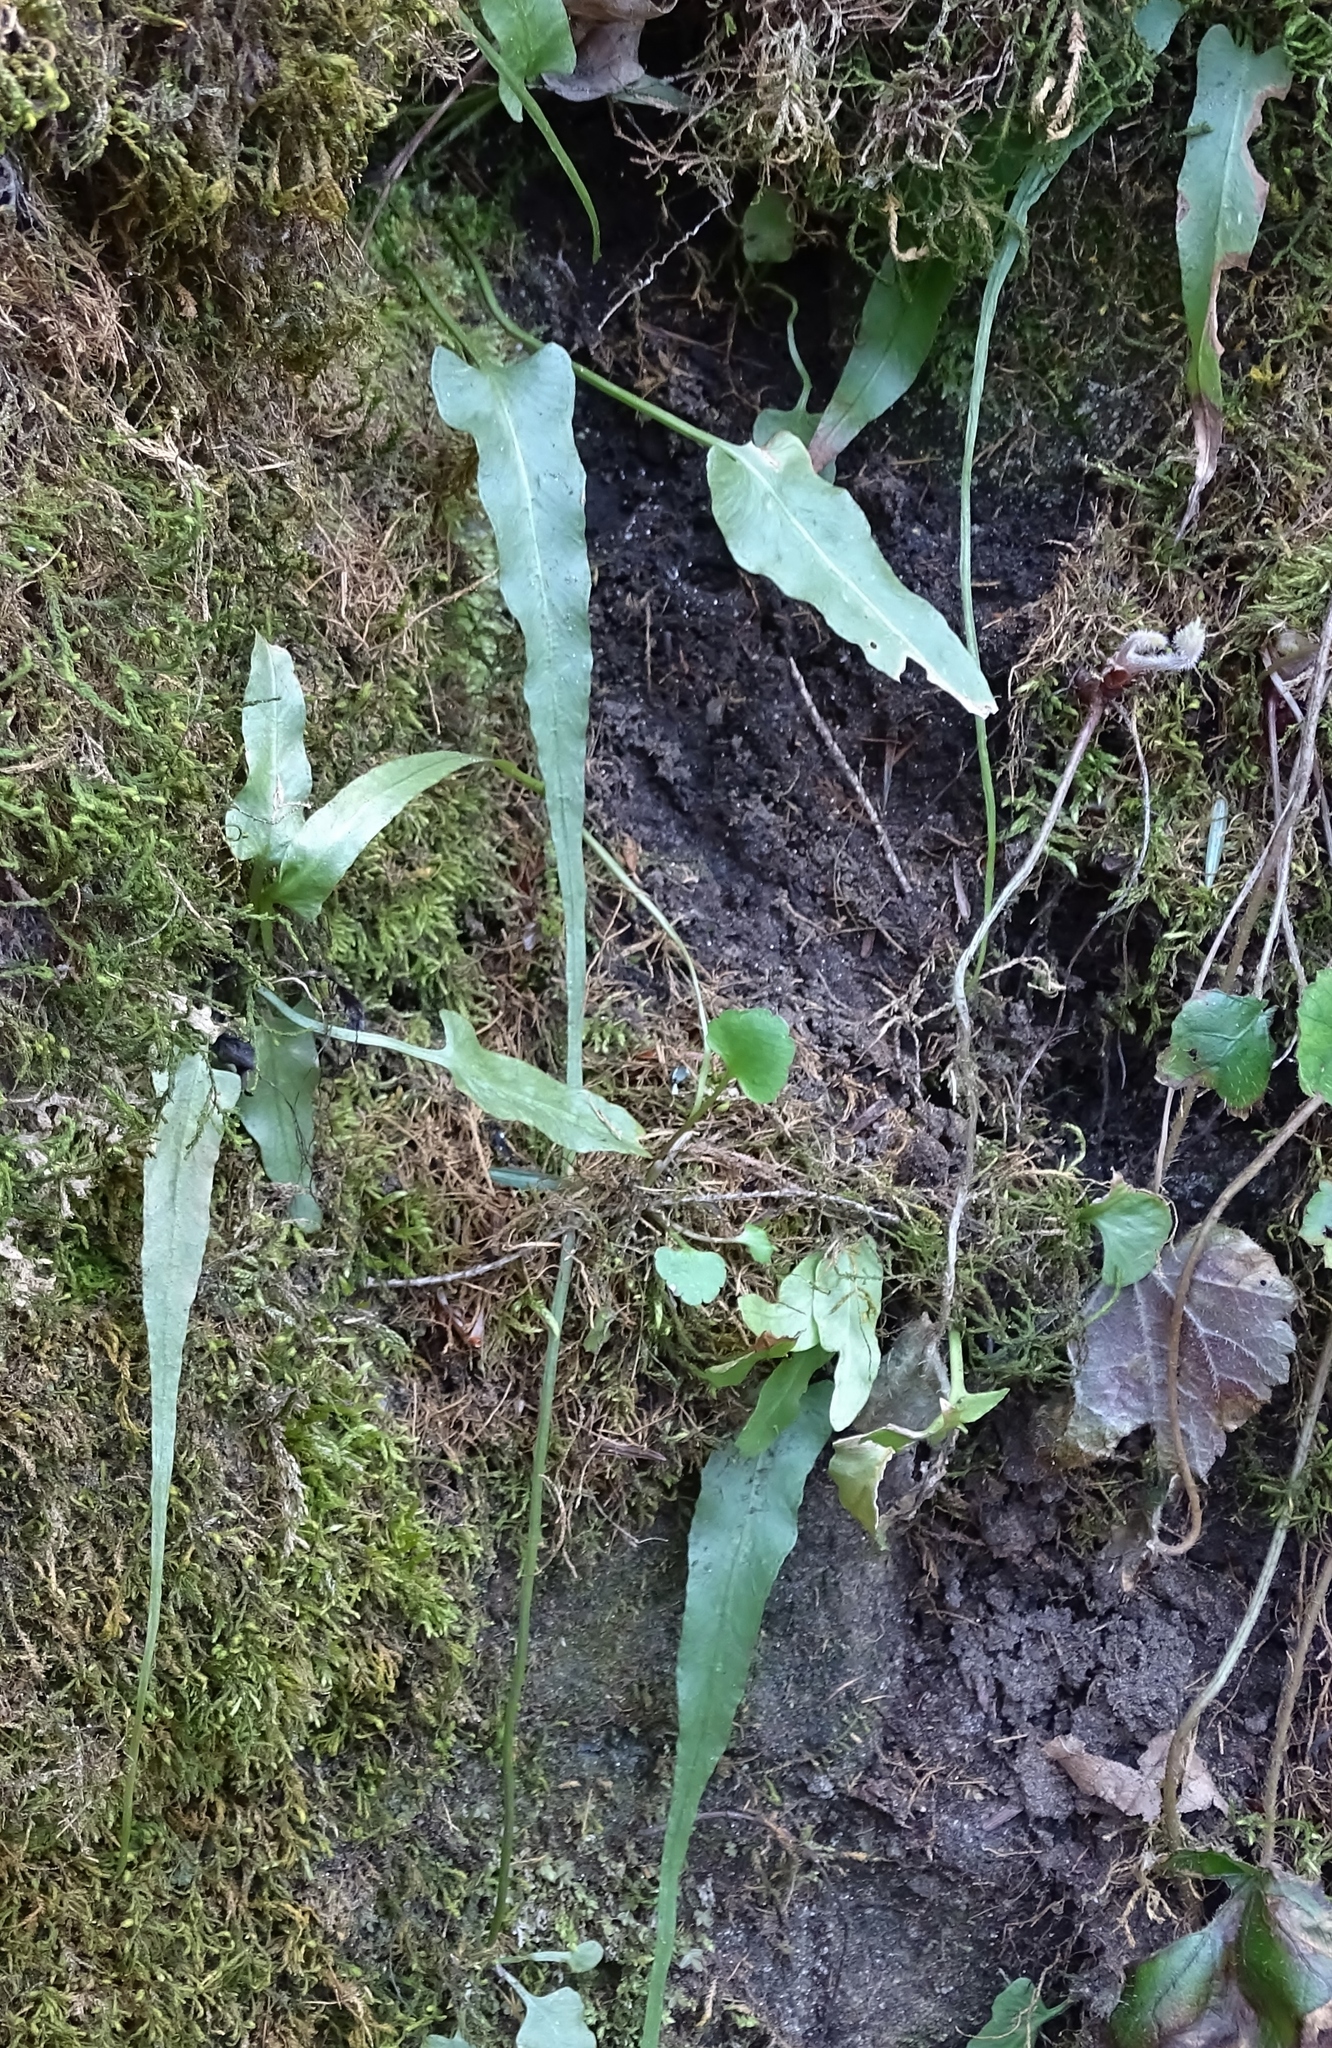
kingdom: Plantae
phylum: Tracheophyta
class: Polypodiopsida
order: Polypodiales
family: Aspleniaceae
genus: Asplenium
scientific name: Asplenium rhizophyllum
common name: Walking fern
